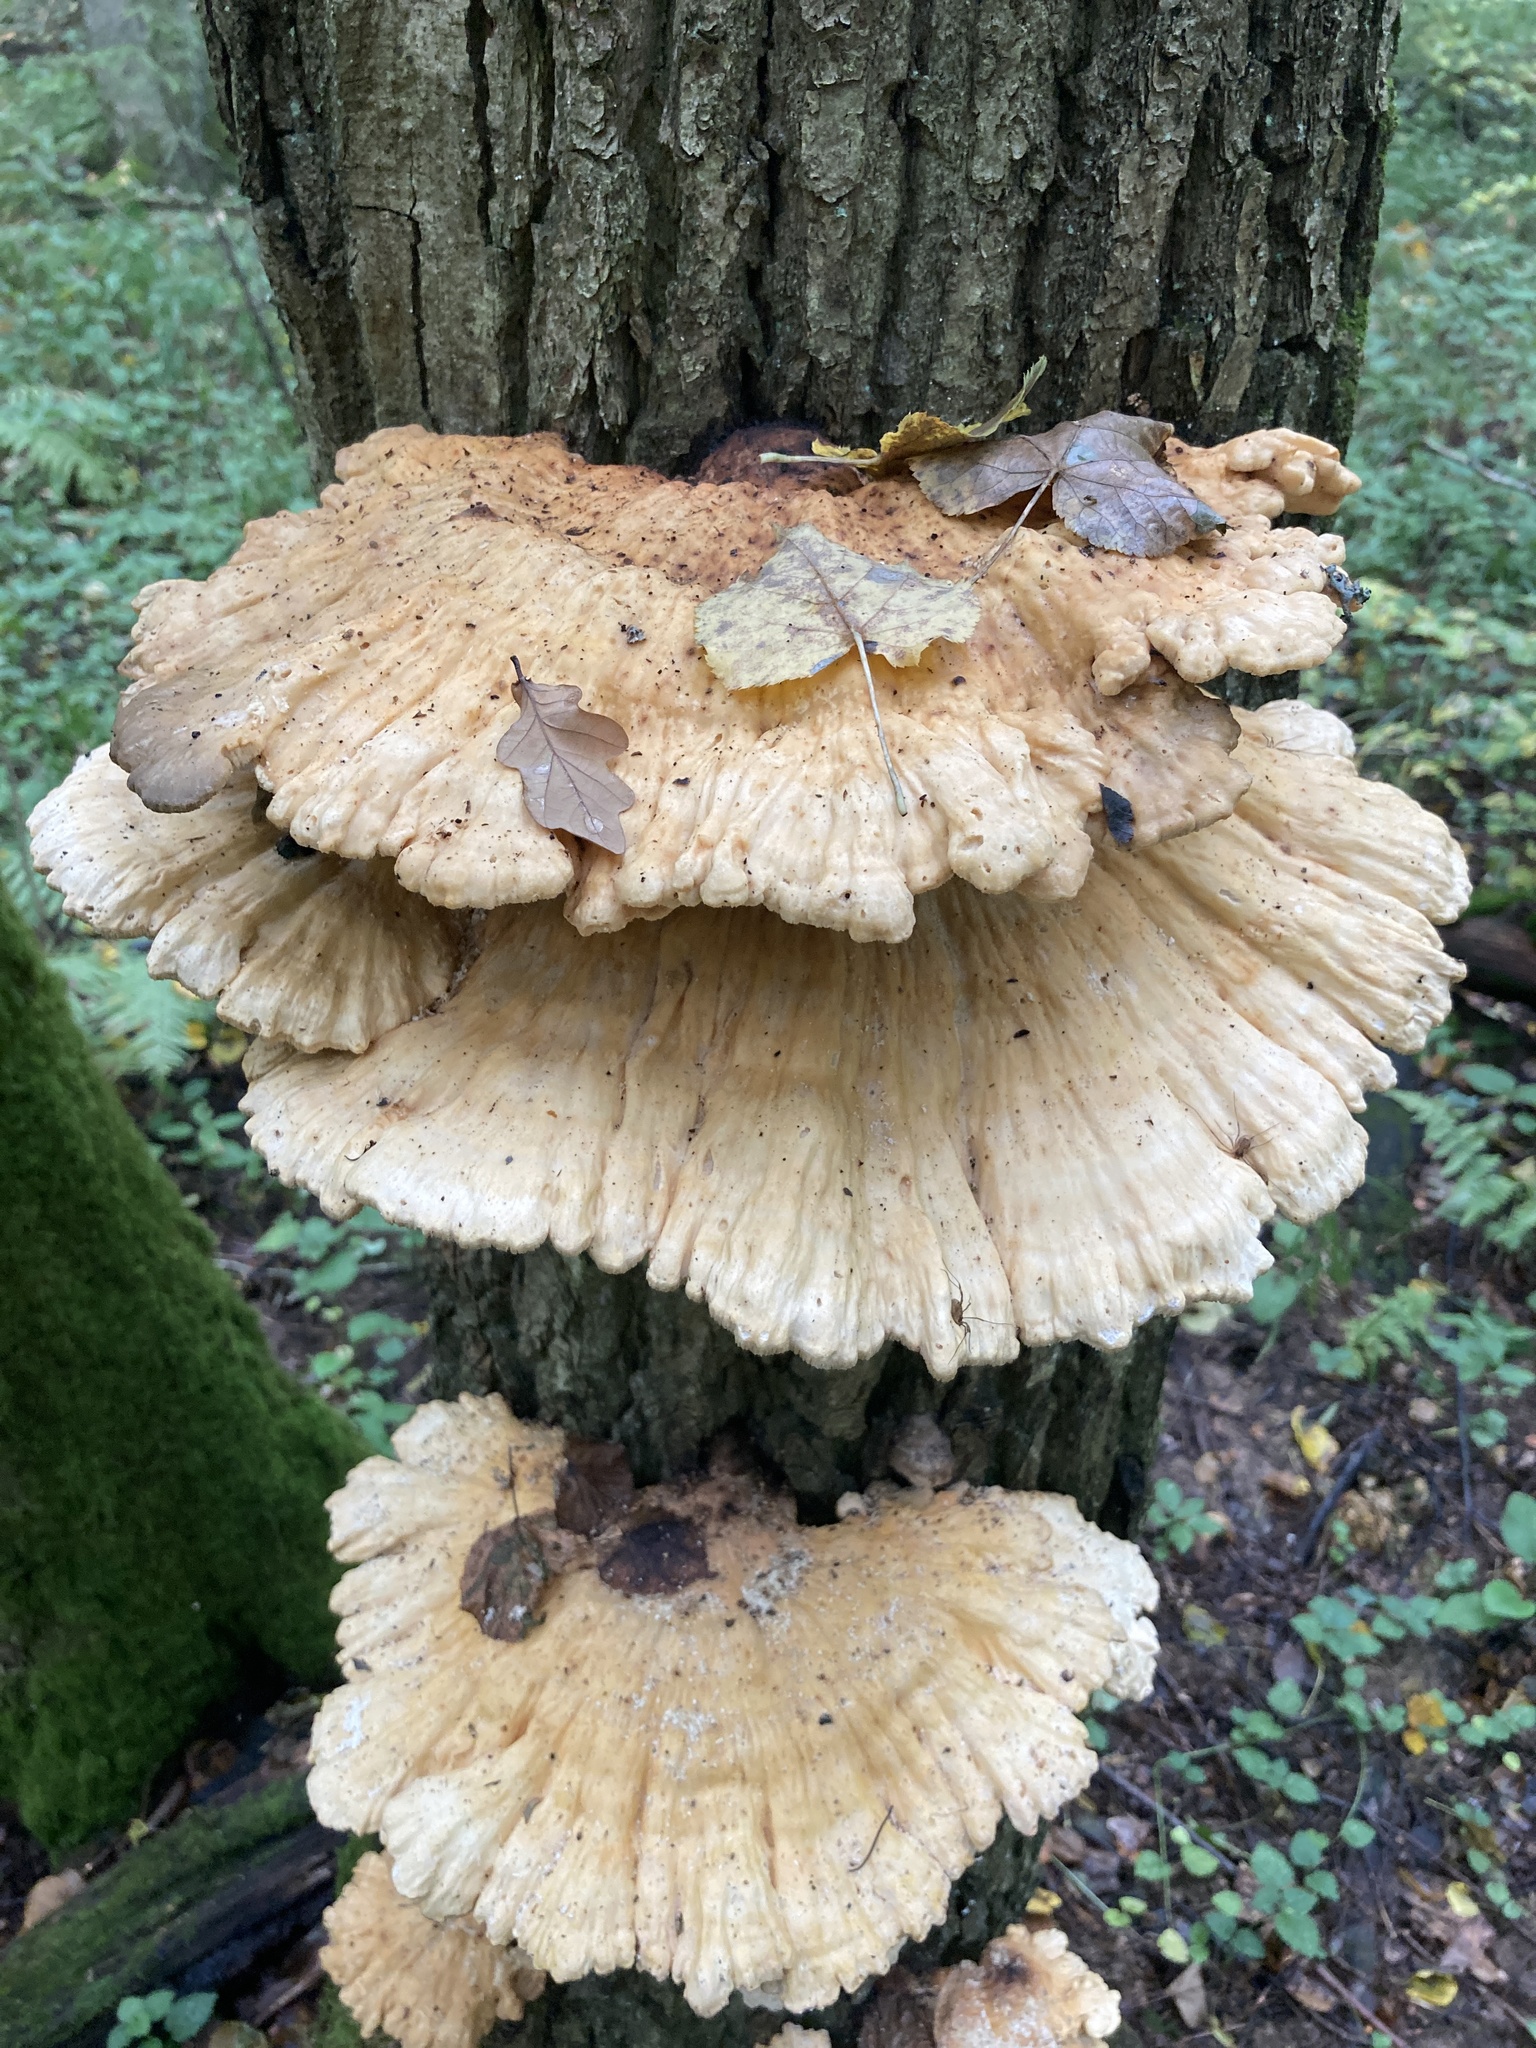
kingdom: Fungi
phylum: Basidiomycota
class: Agaricomycetes
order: Polyporales
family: Laetiporaceae
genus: Laetiporus
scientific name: Laetiporus sulphureus
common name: Chicken of the woods
